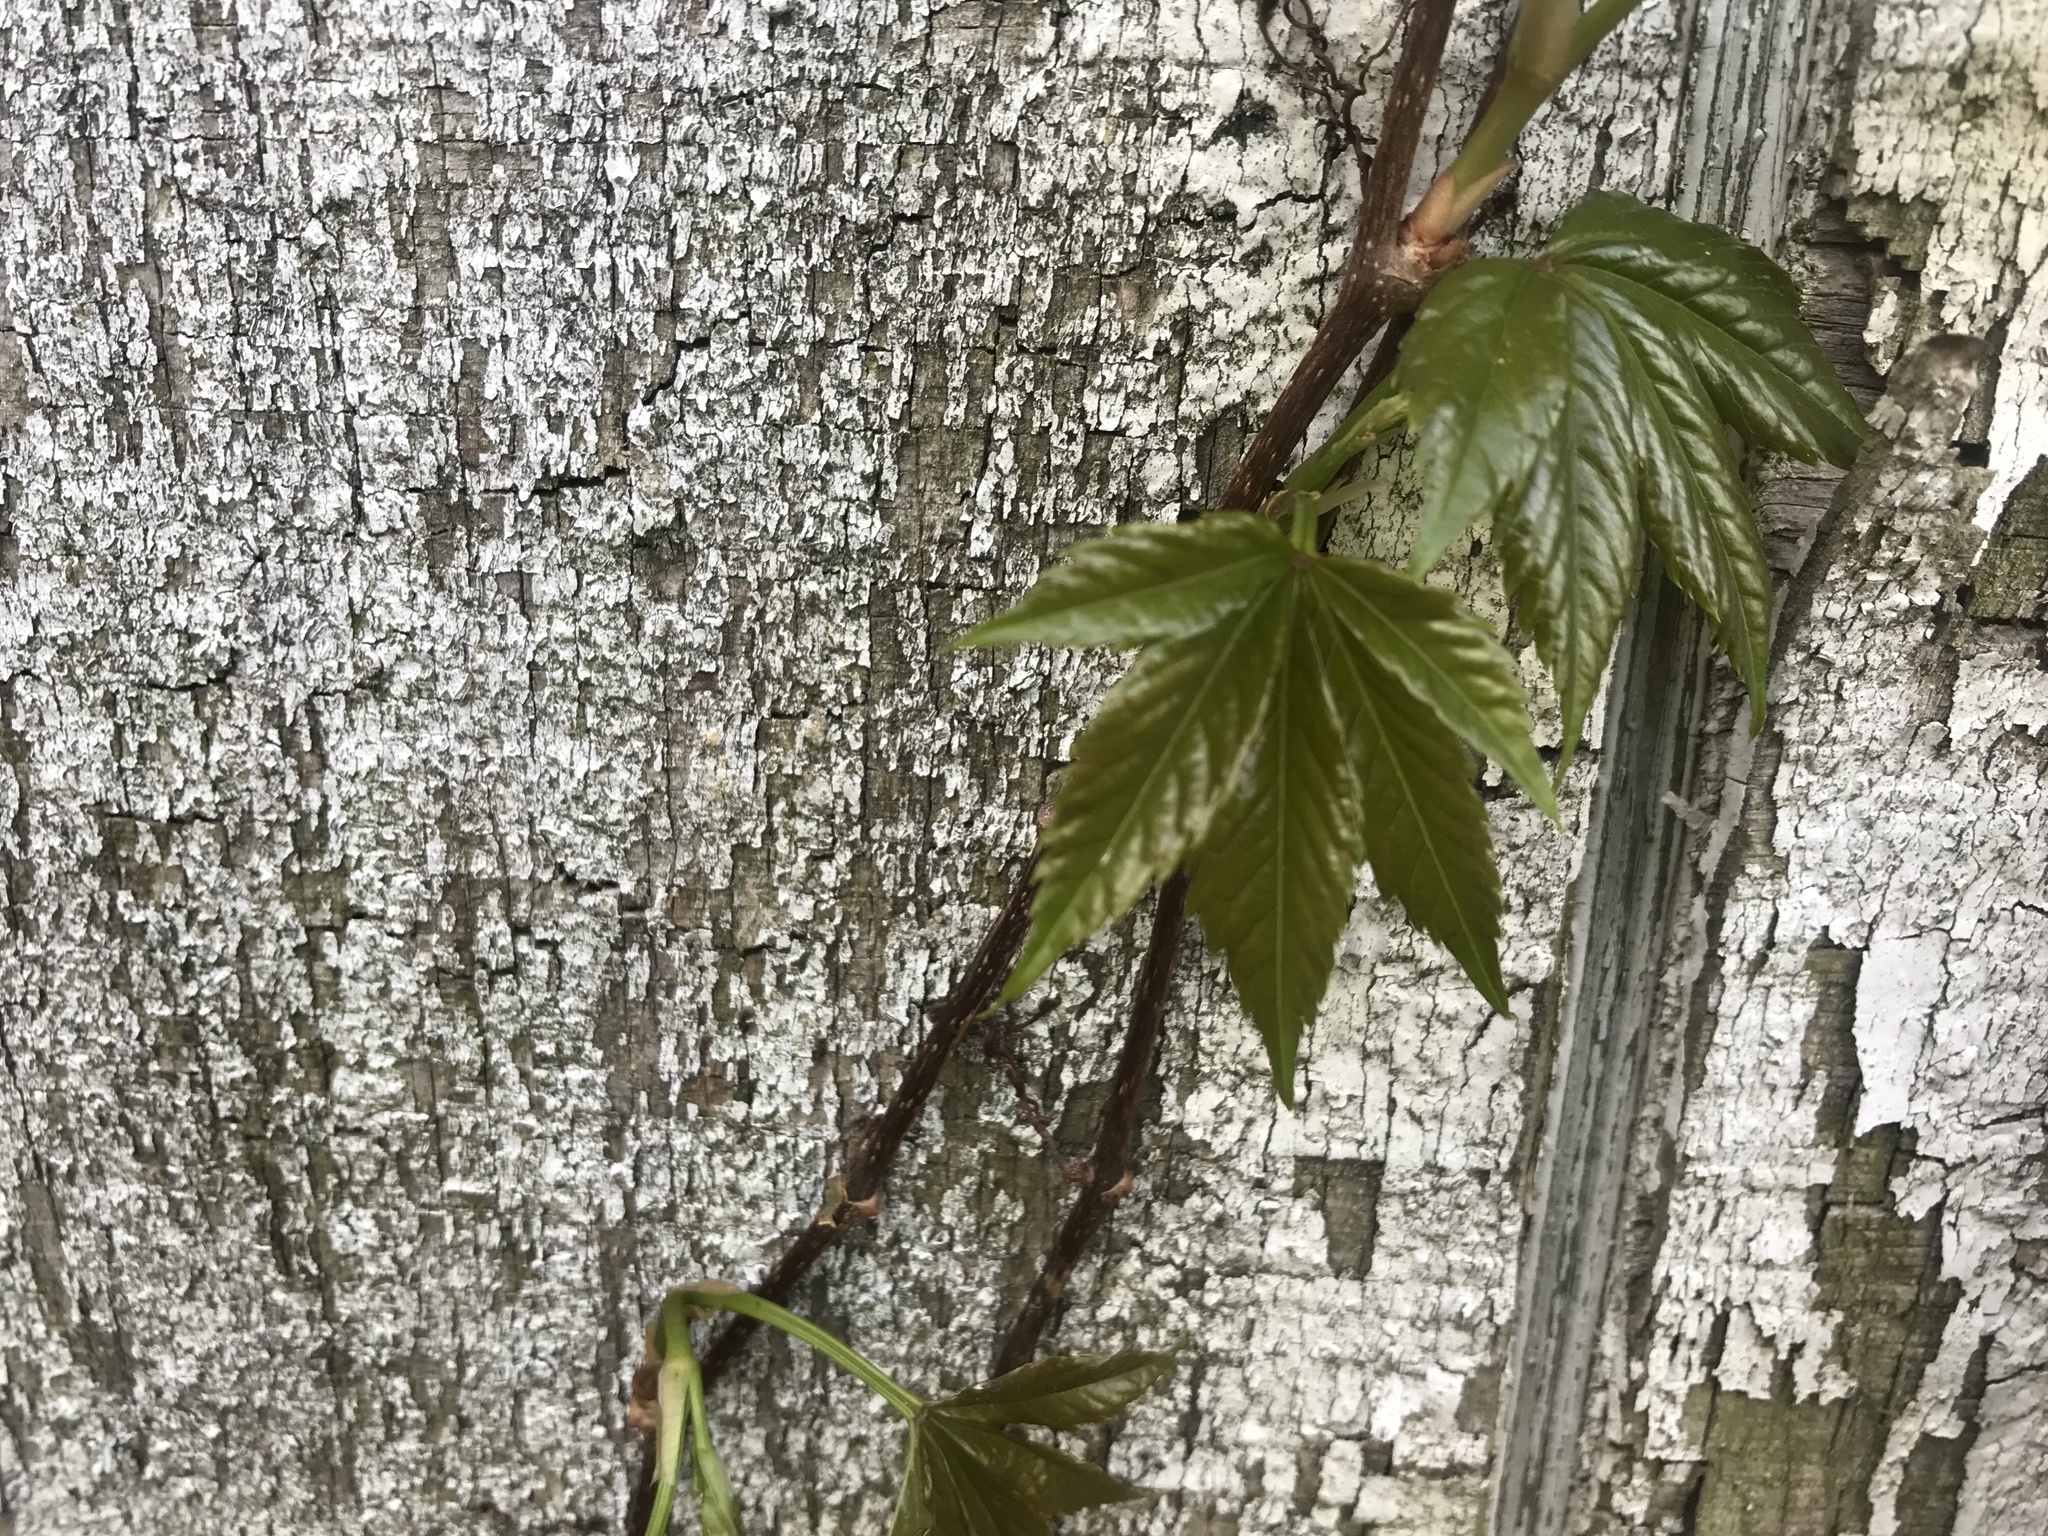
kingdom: Plantae
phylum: Tracheophyta
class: Magnoliopsida
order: Vitales
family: Vitaceae
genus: Parthenocissus
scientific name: Parthenocissus quinquefolia
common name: Virginia-creeper
